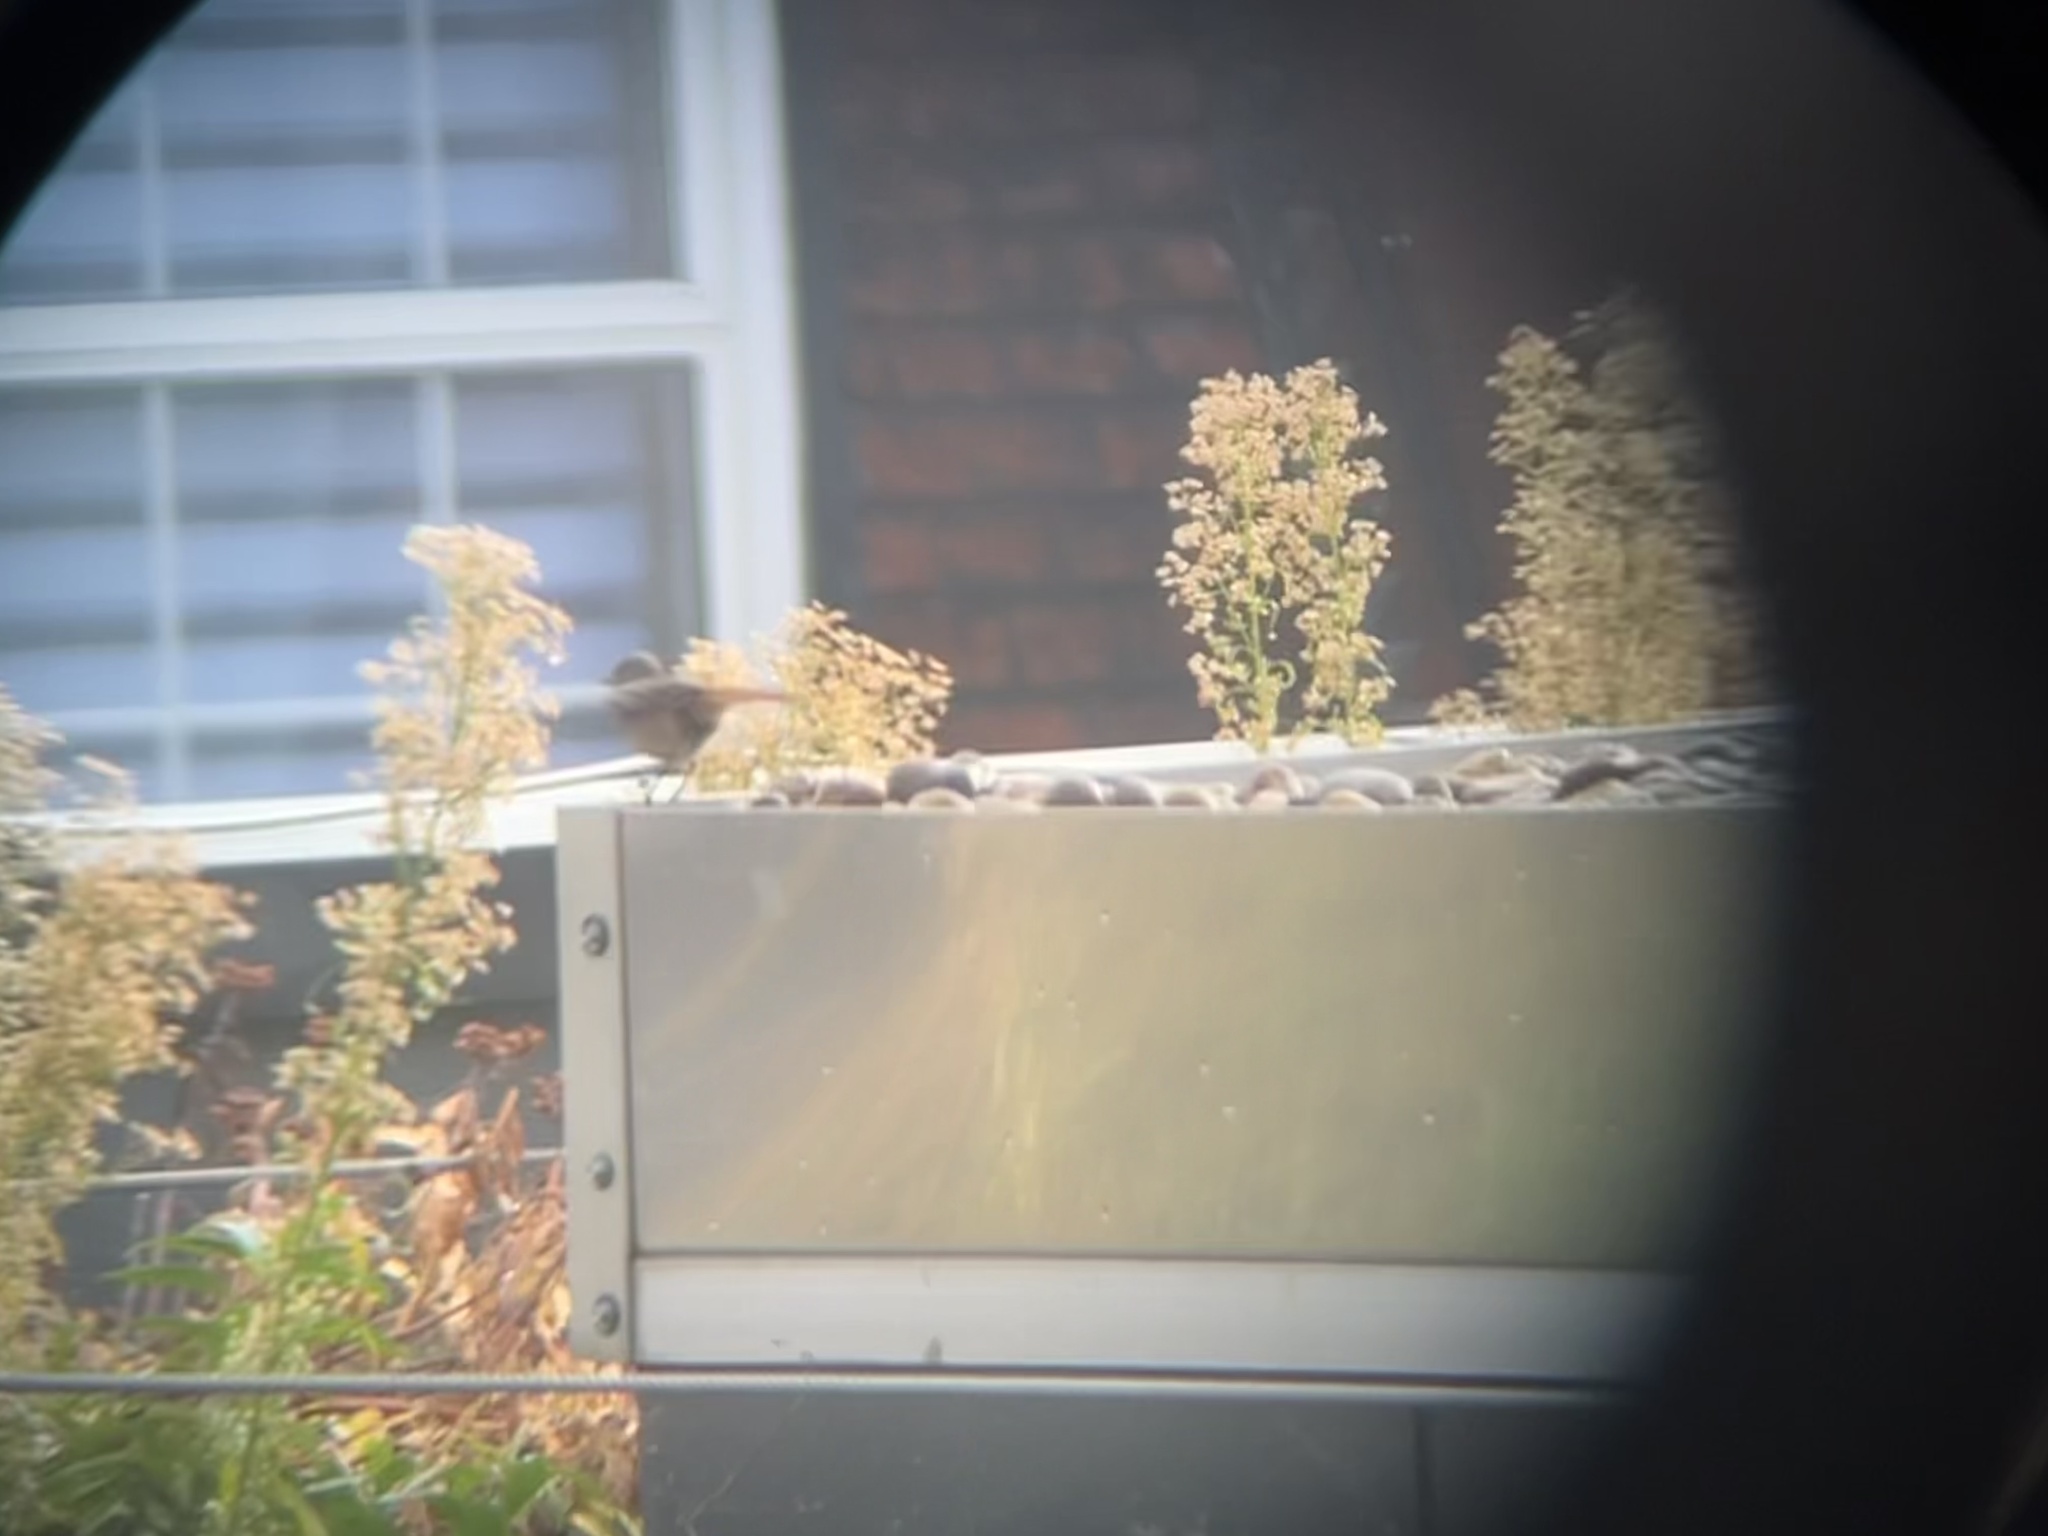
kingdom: Animalia
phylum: Chordata
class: Aves
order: Passeriformes
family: Muscicapidae
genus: Phoenicurus
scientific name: Phoenicurus ochruros
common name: Black redstart
